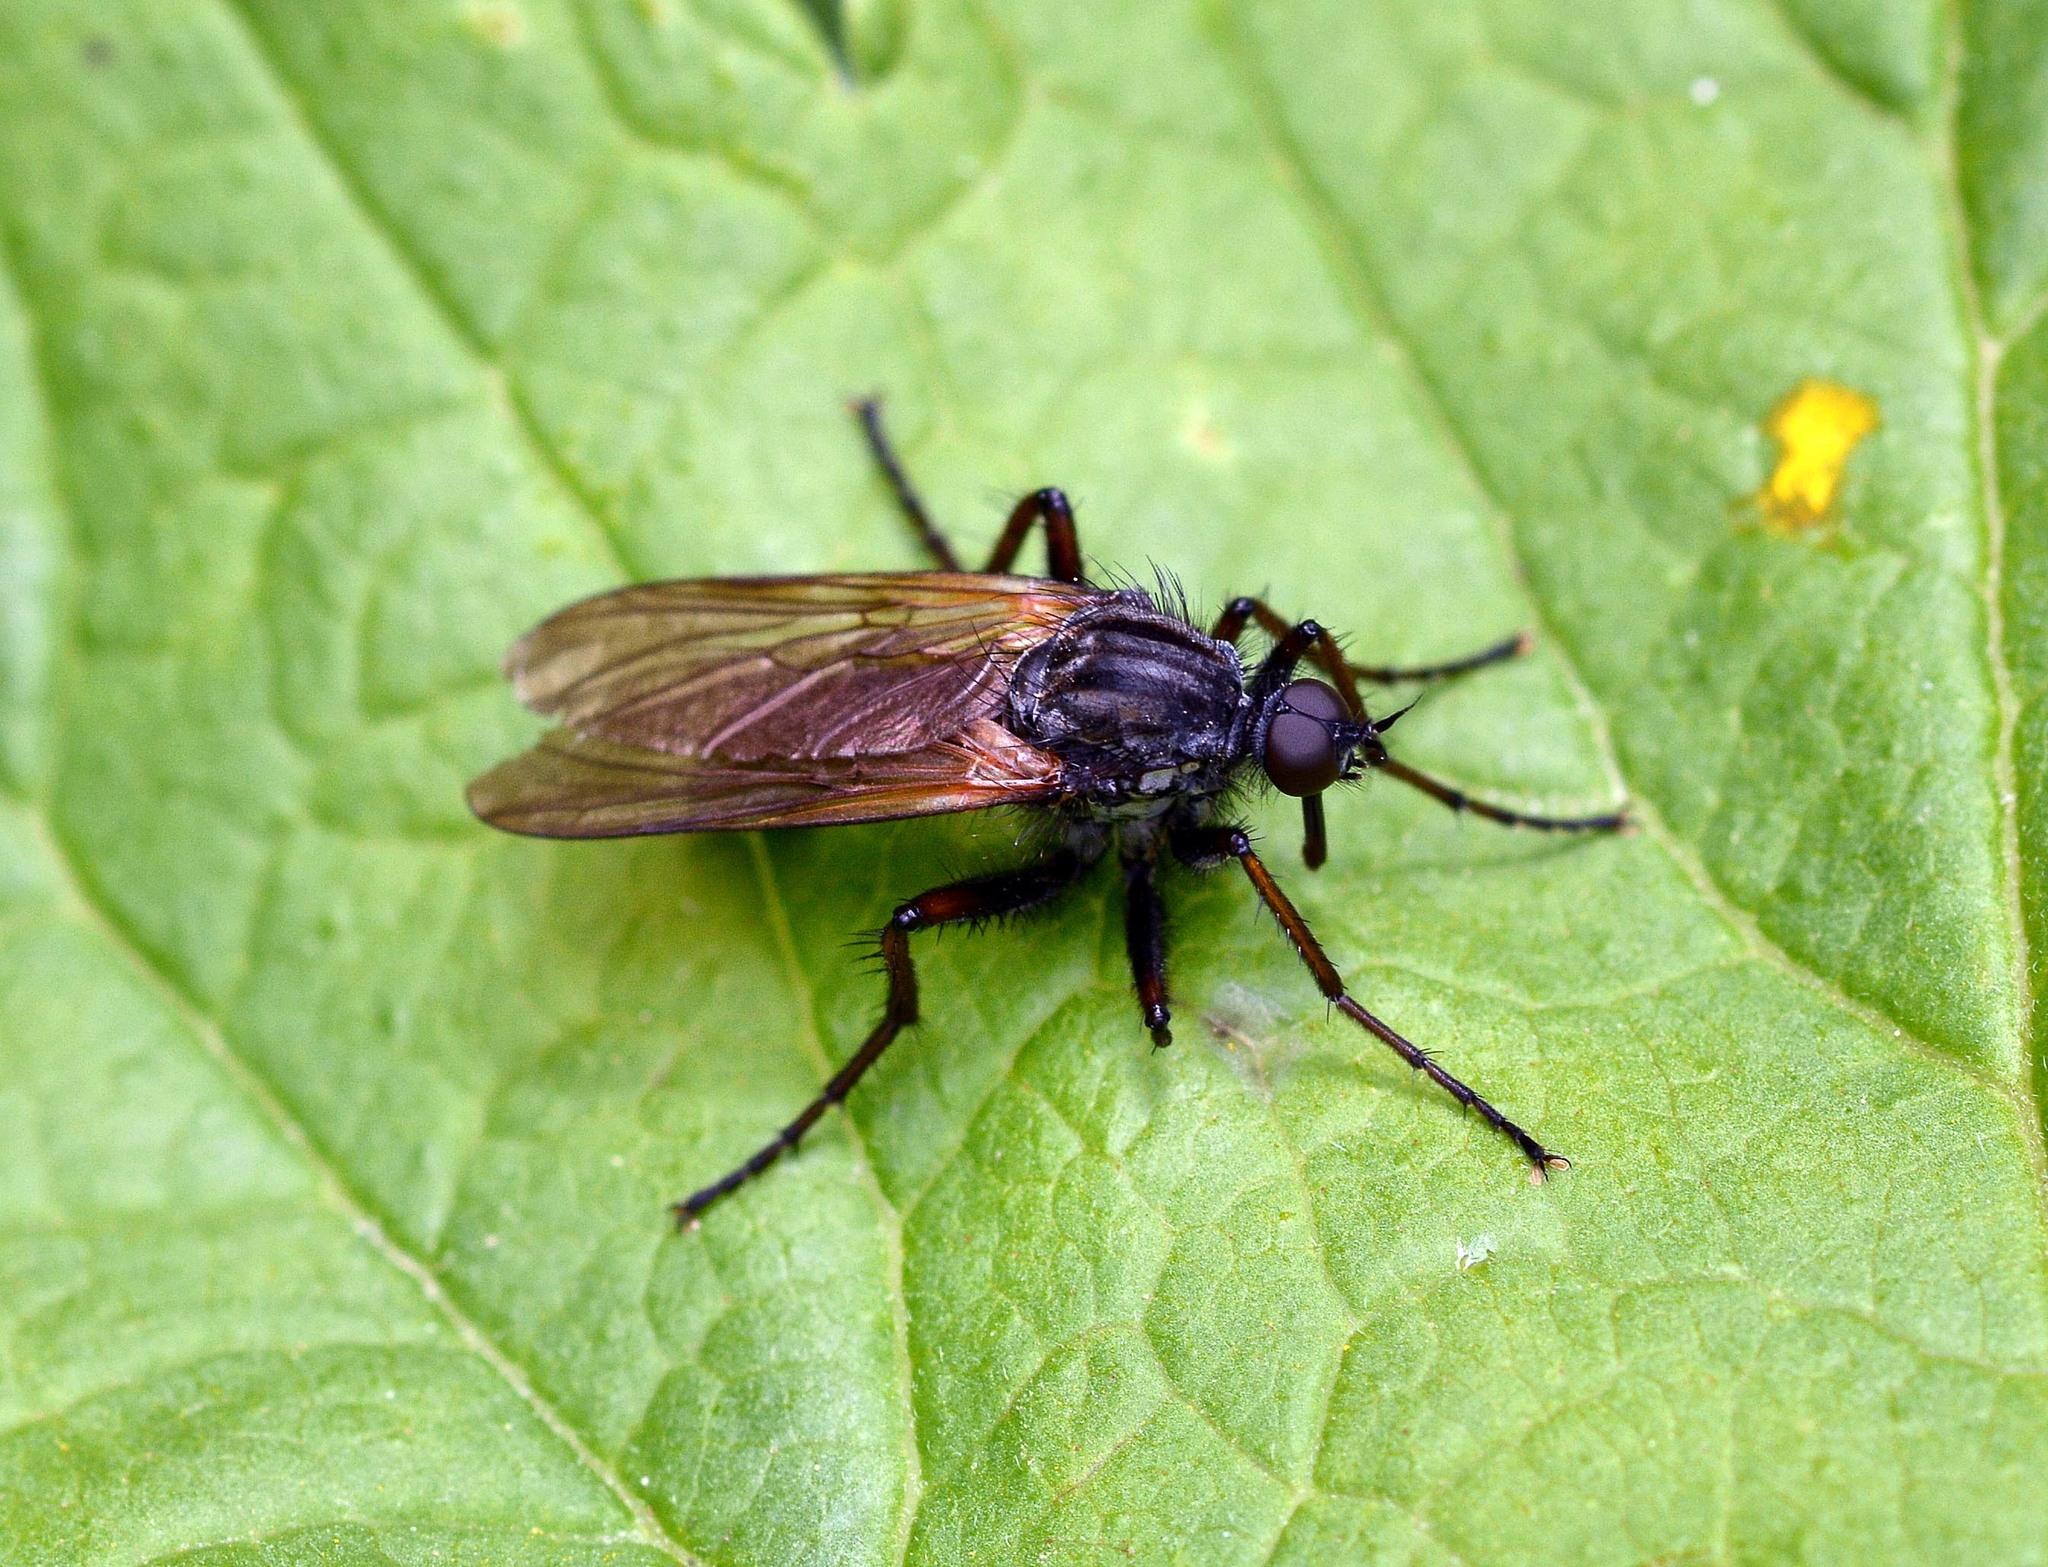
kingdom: Animalia
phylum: Arthropoda
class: Insecta
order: Diptera
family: Empididae
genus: Empis
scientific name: Empis tessellata
